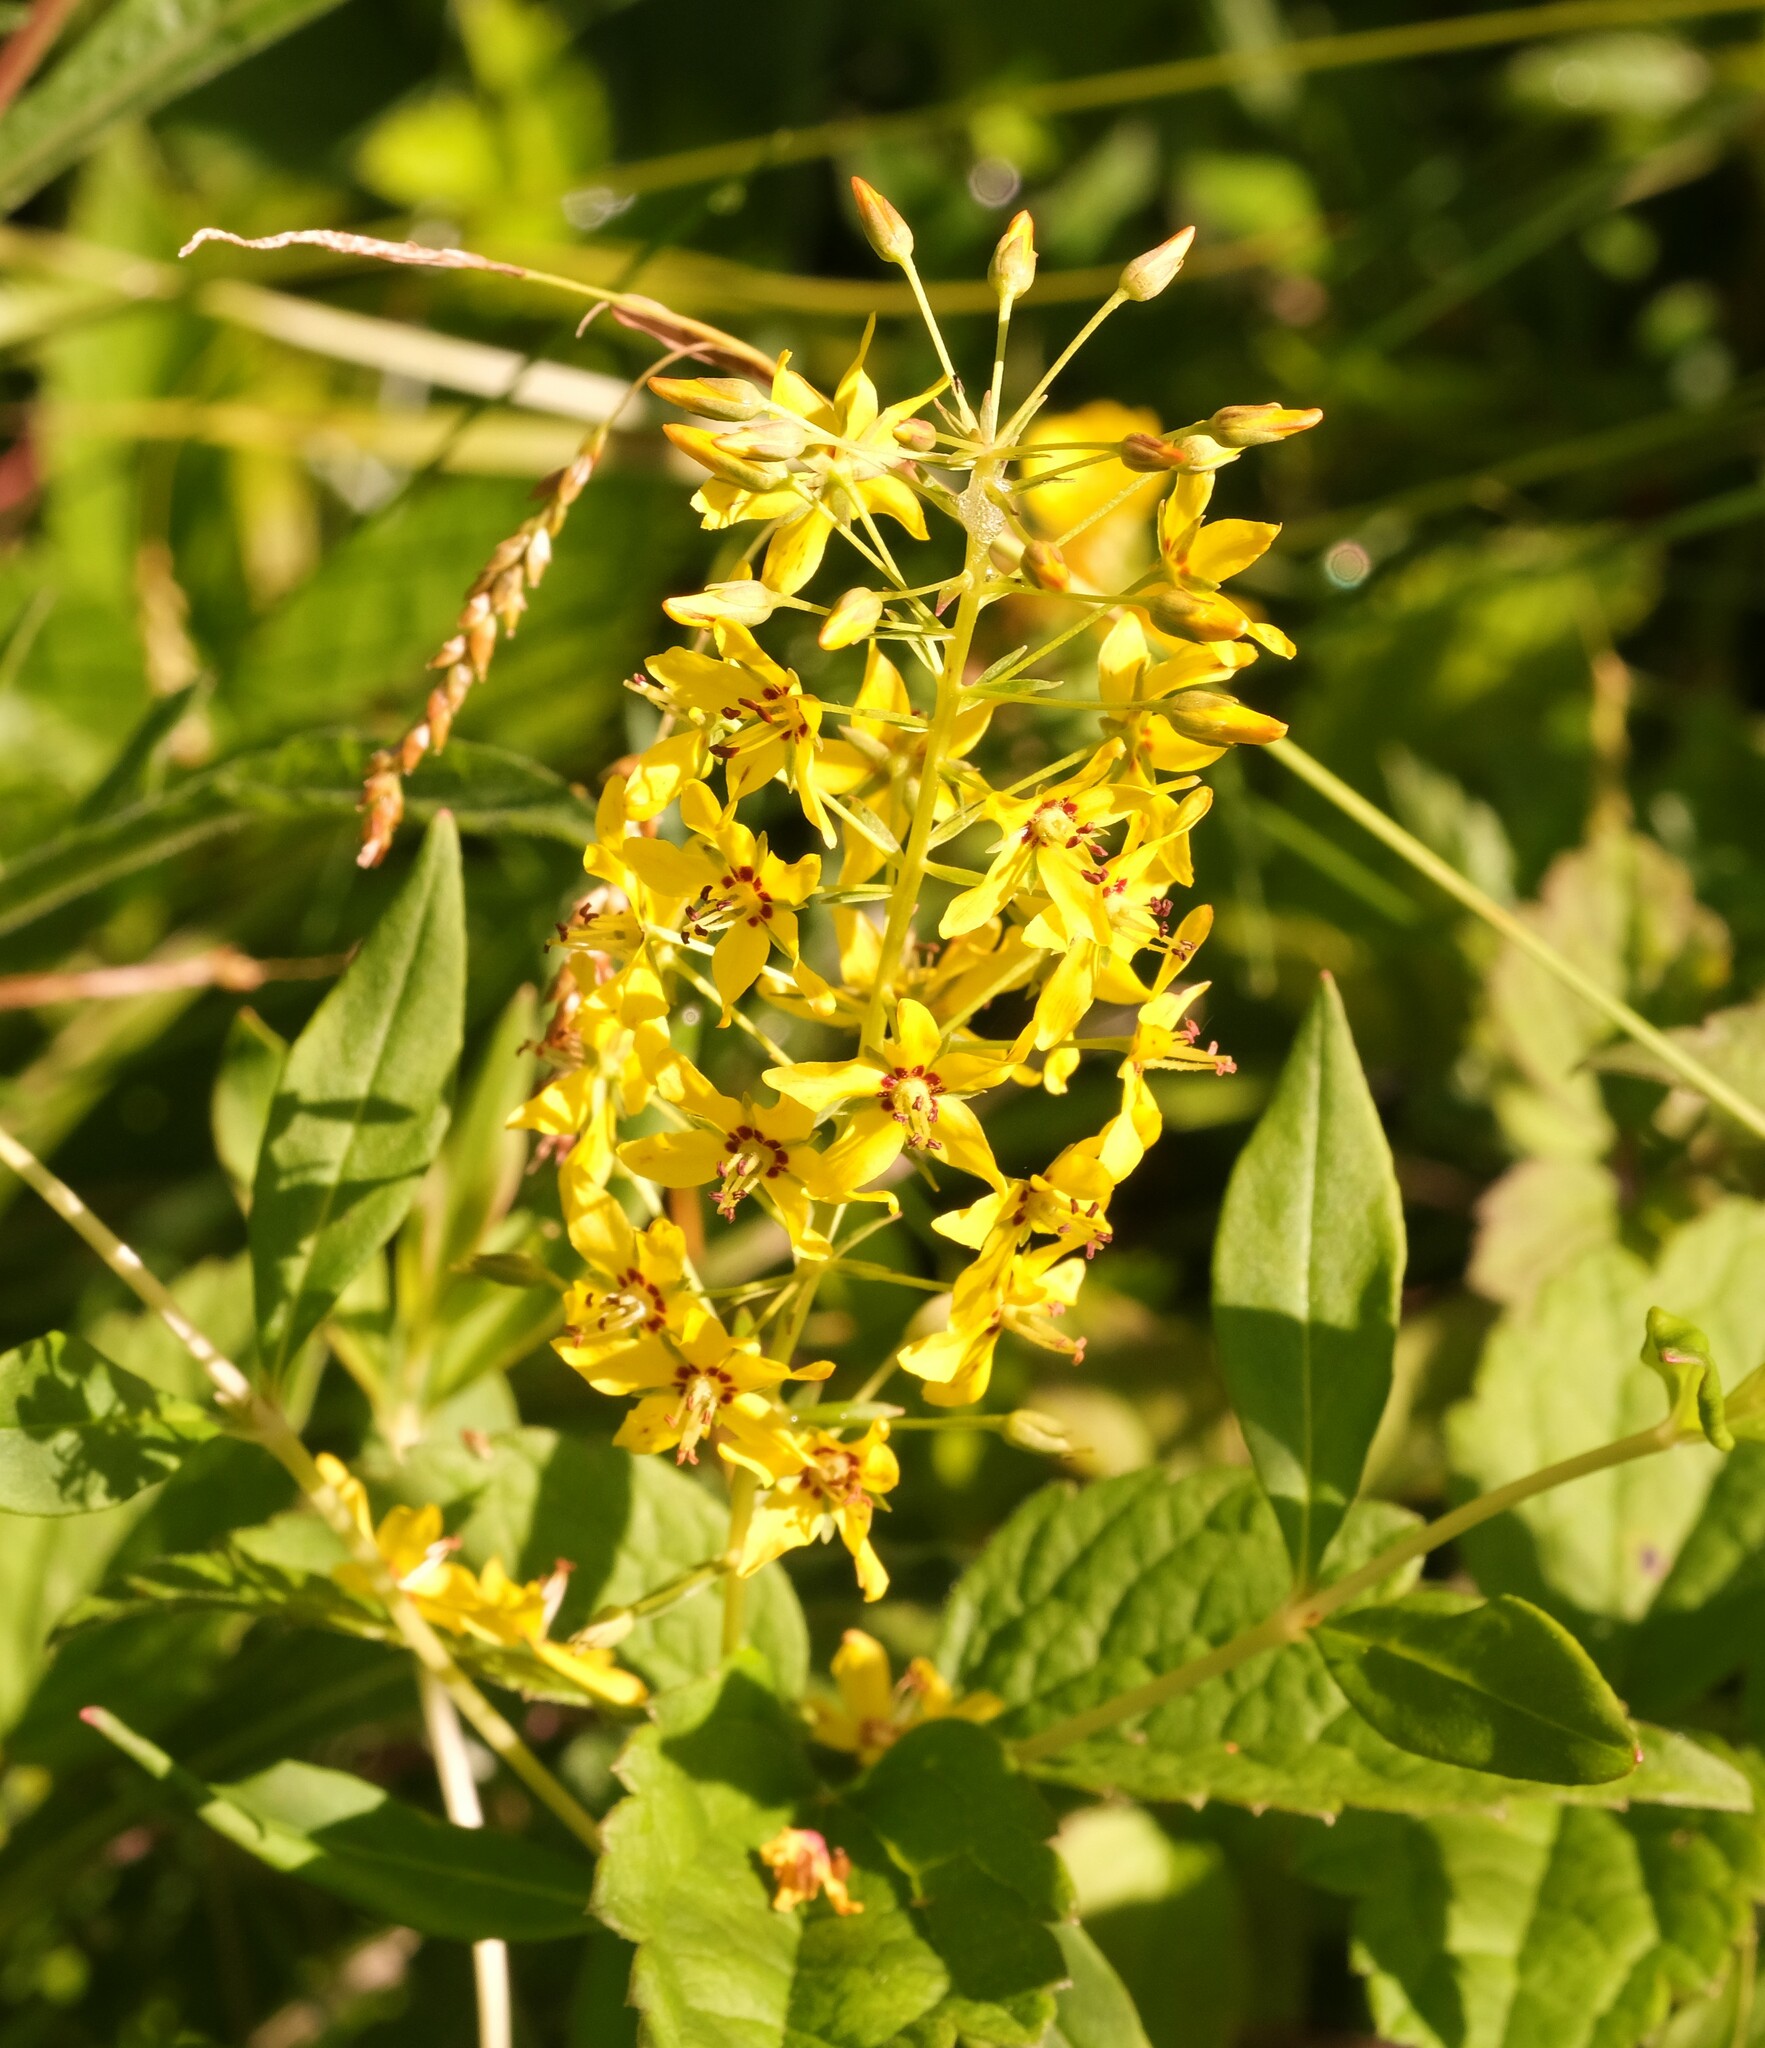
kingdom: Plantae
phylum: Tracheophyta
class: Magnoliopsida
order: Ericales
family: Primulaceae
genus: Lysimachia
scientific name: Lysimachia terrestris
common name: Lake loosestrife
